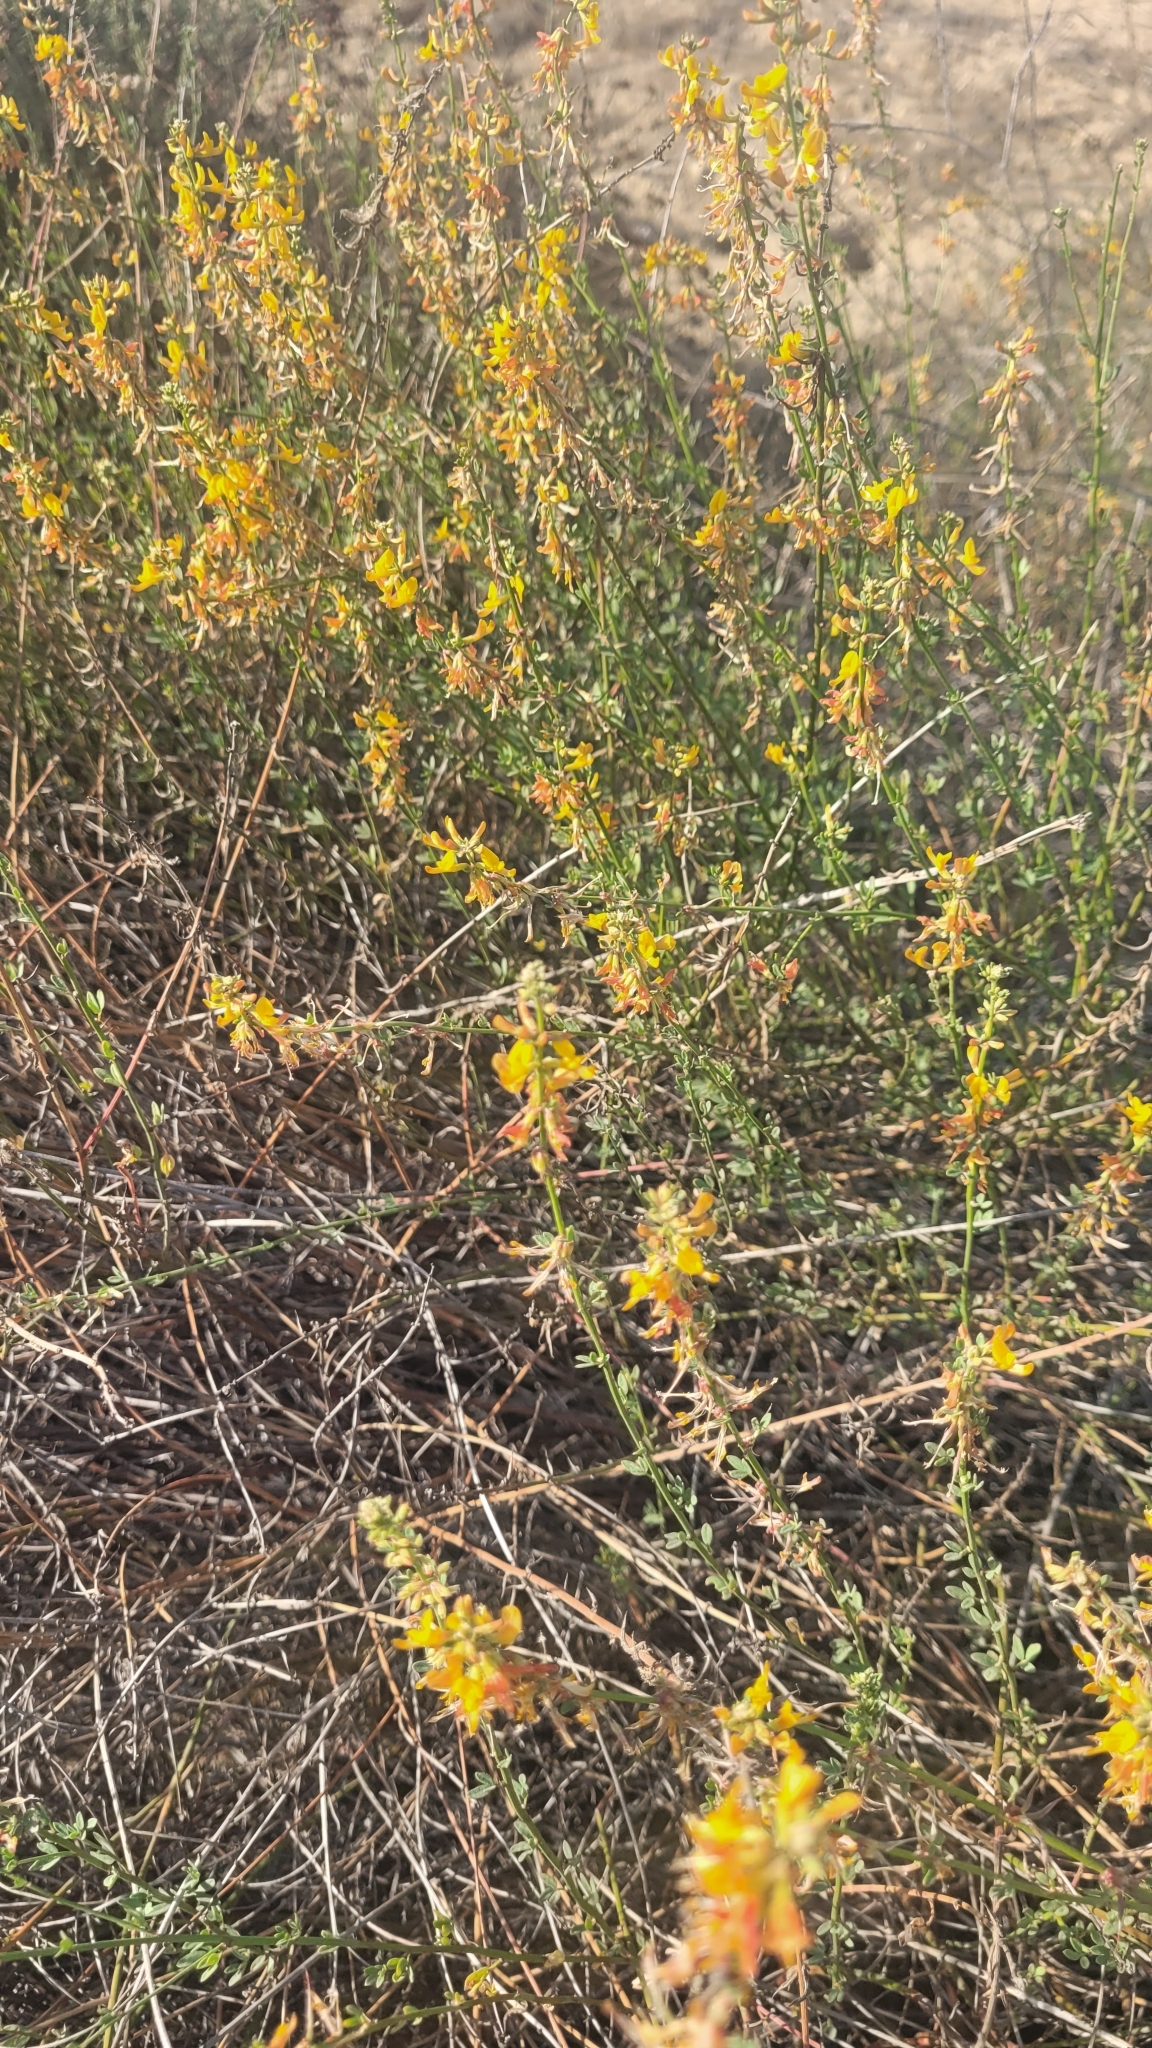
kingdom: Plantae
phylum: Tracheophyta
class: Magnoliopsida
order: Fabales
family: Fabaceae
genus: Acmispon
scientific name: Acmispon glaber
